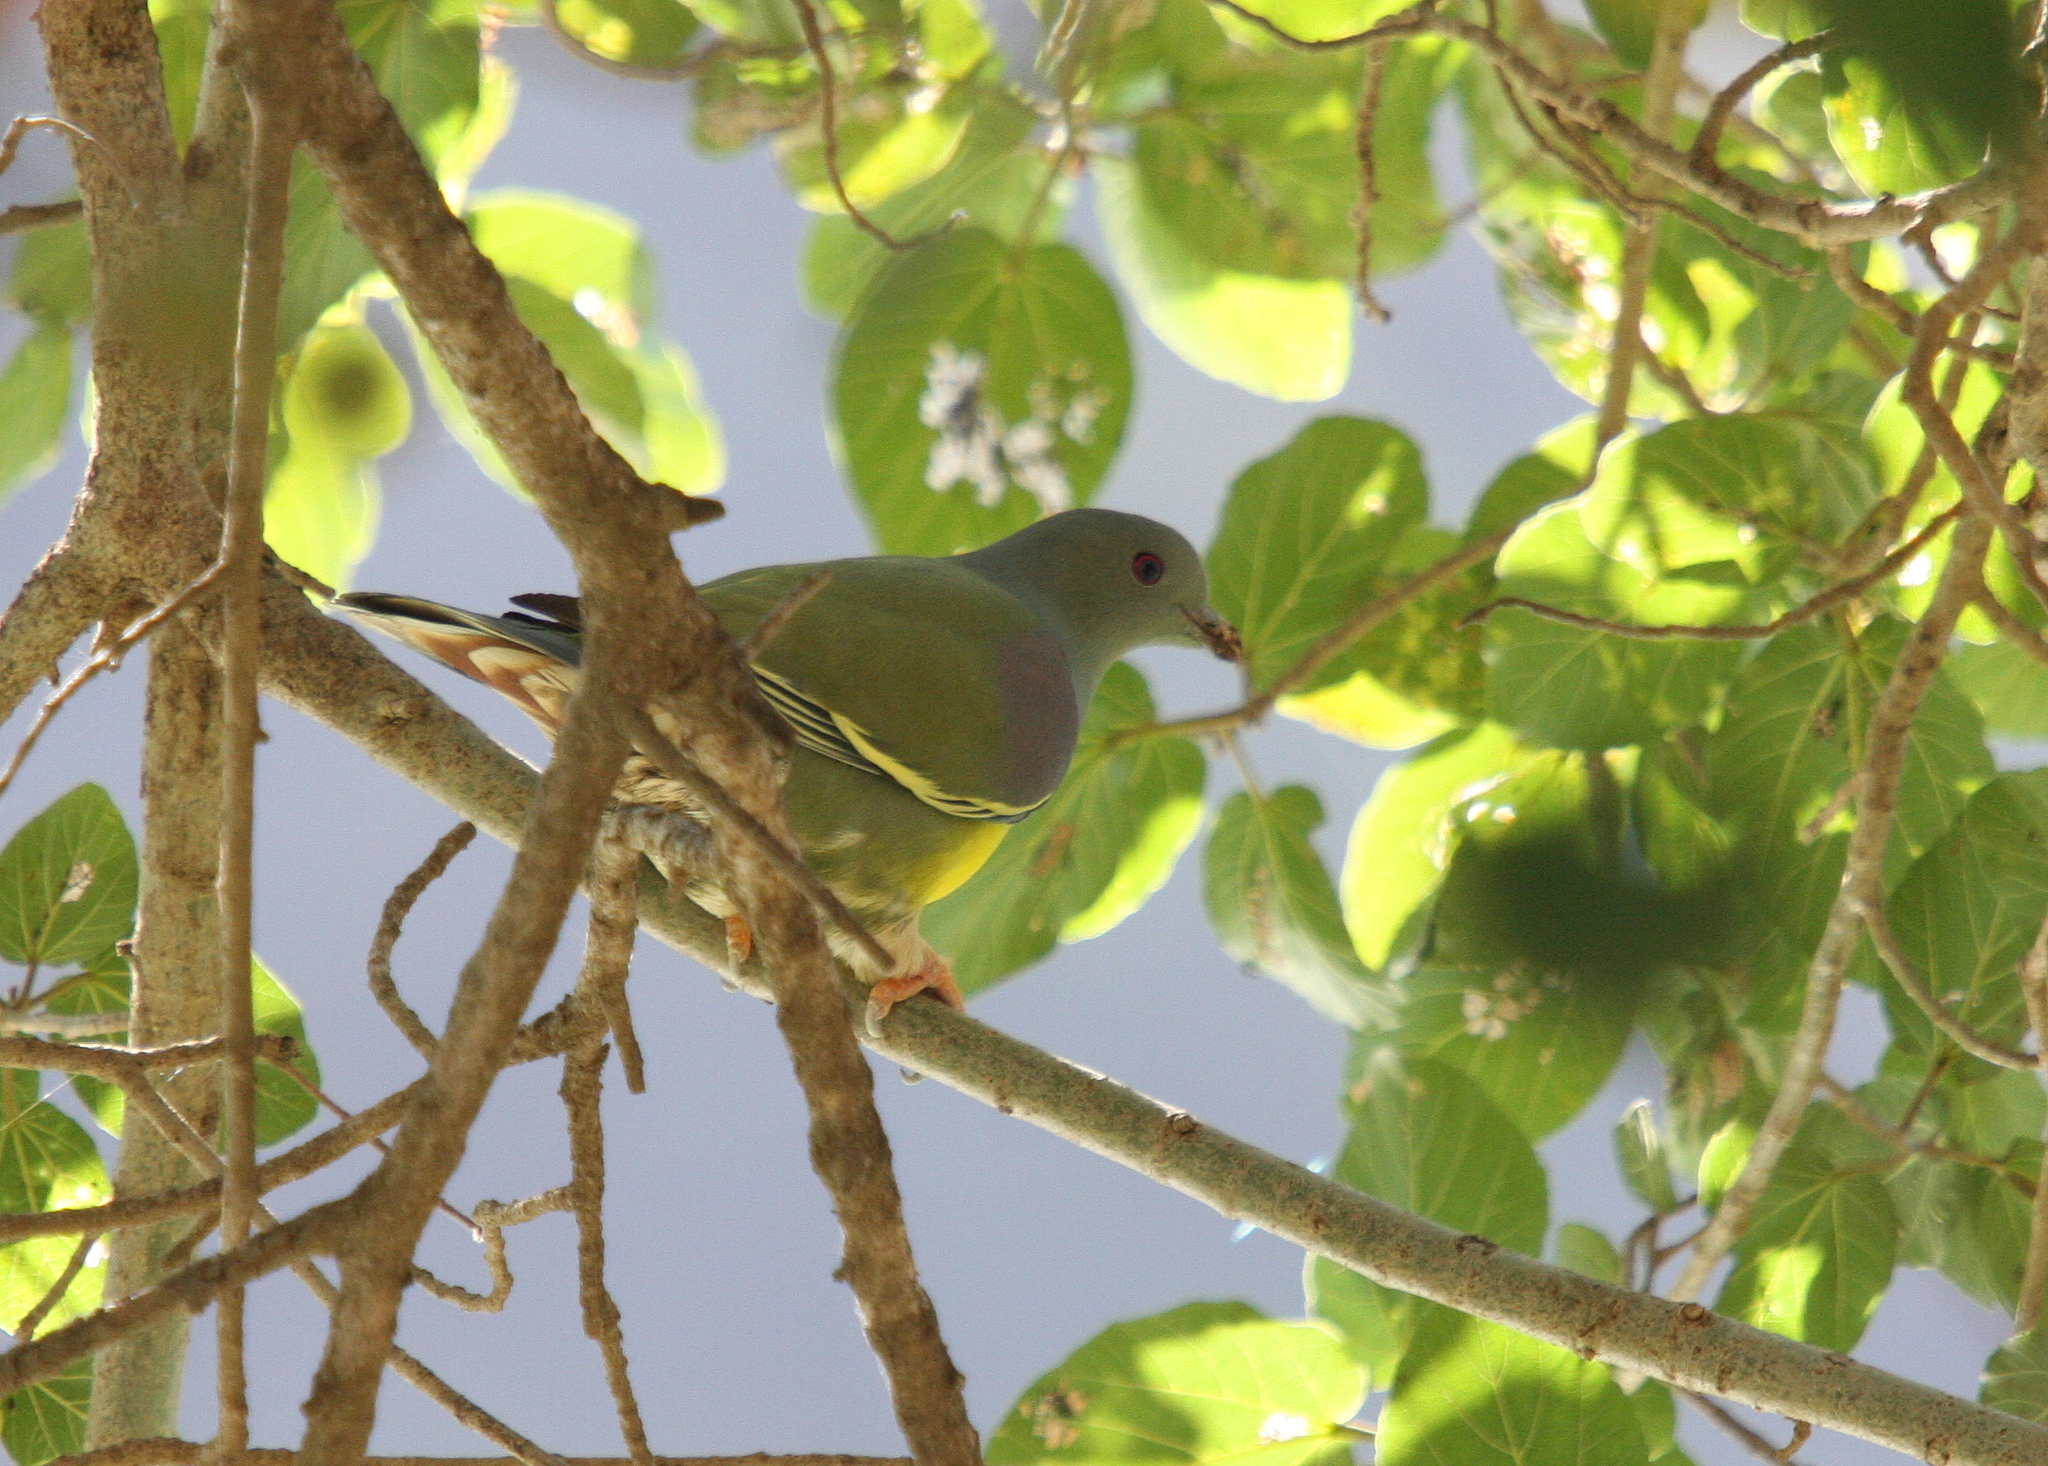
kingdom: Animalia
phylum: Chordata
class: Aves
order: Columbiformes
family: Columbidae
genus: Treron
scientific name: Treron waalia
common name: Bruce's green pigeon
